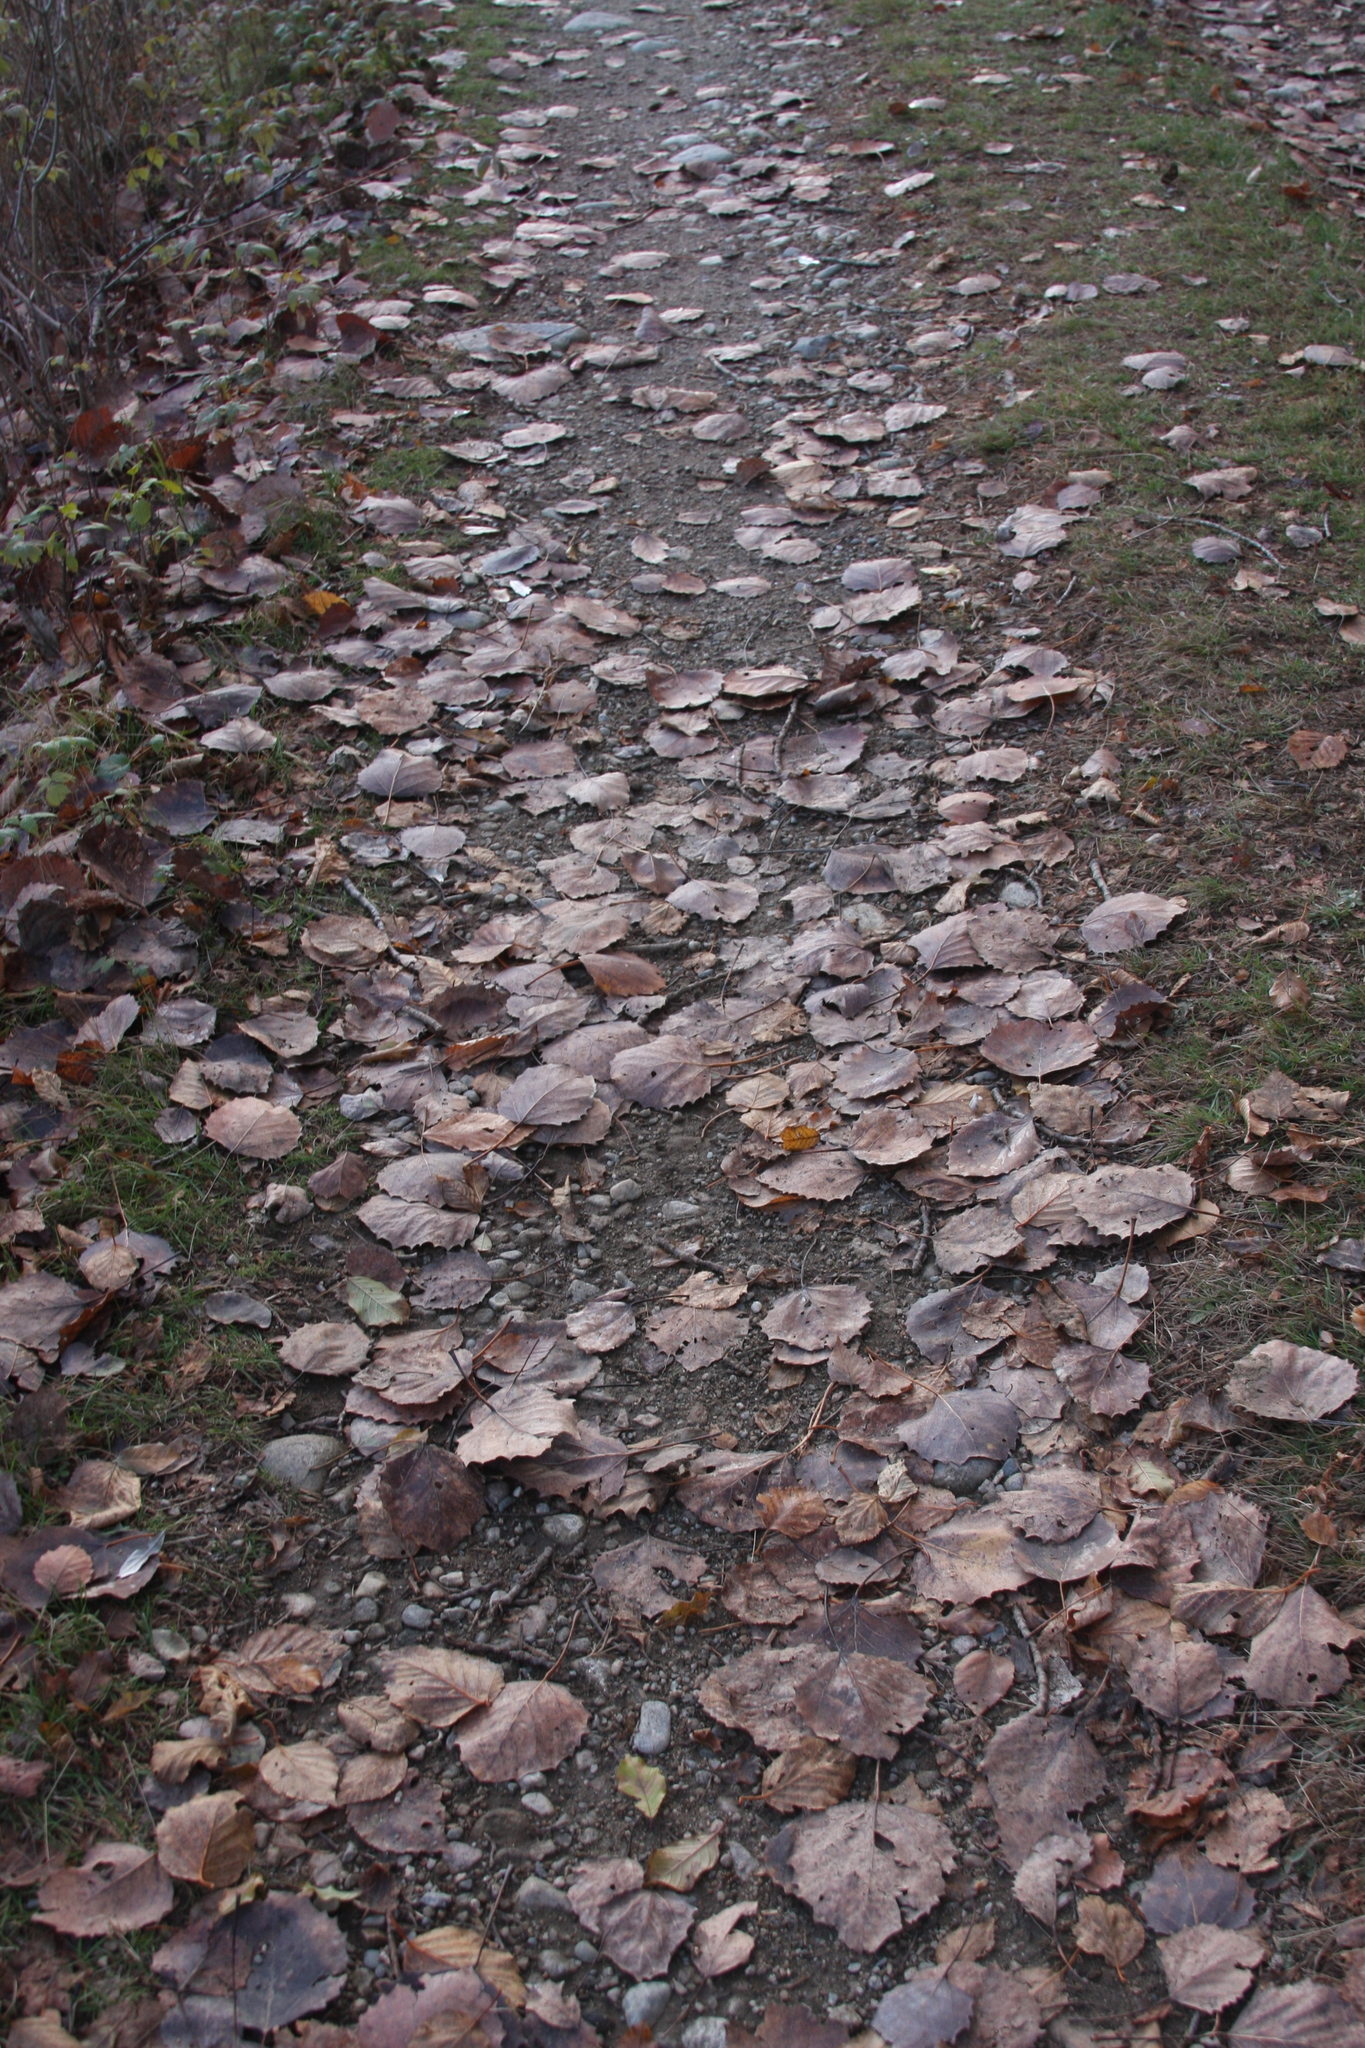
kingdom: Plantae
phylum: Tracheophyta
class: Magnoliopsida
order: Malpighiales
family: Salicaceae
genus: Populus
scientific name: Populus grandidentata
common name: Bigtooth aspen
